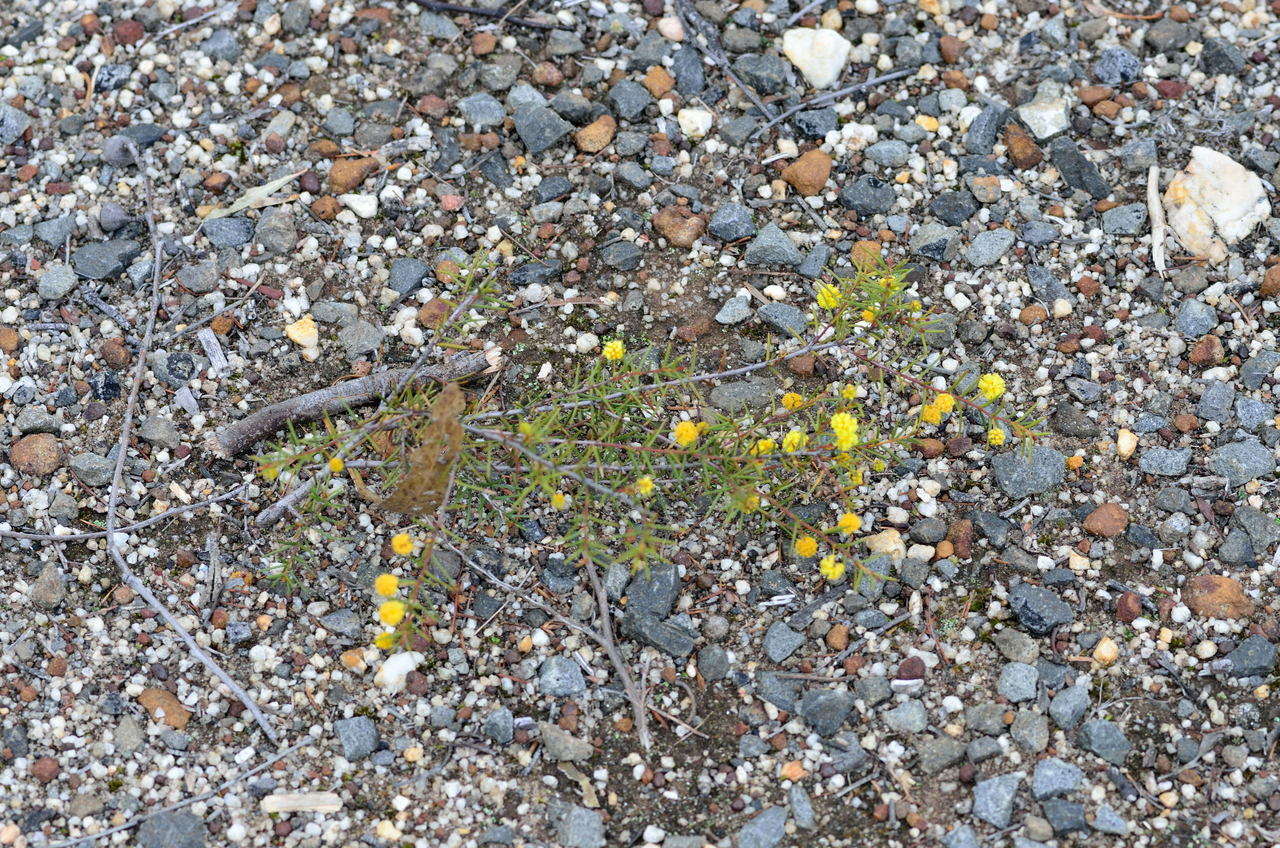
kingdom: Plantae
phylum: Tracheophyta
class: Magnoliopsida
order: Fabales
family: Fabaceae
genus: Acacia
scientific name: Acacia brownii
